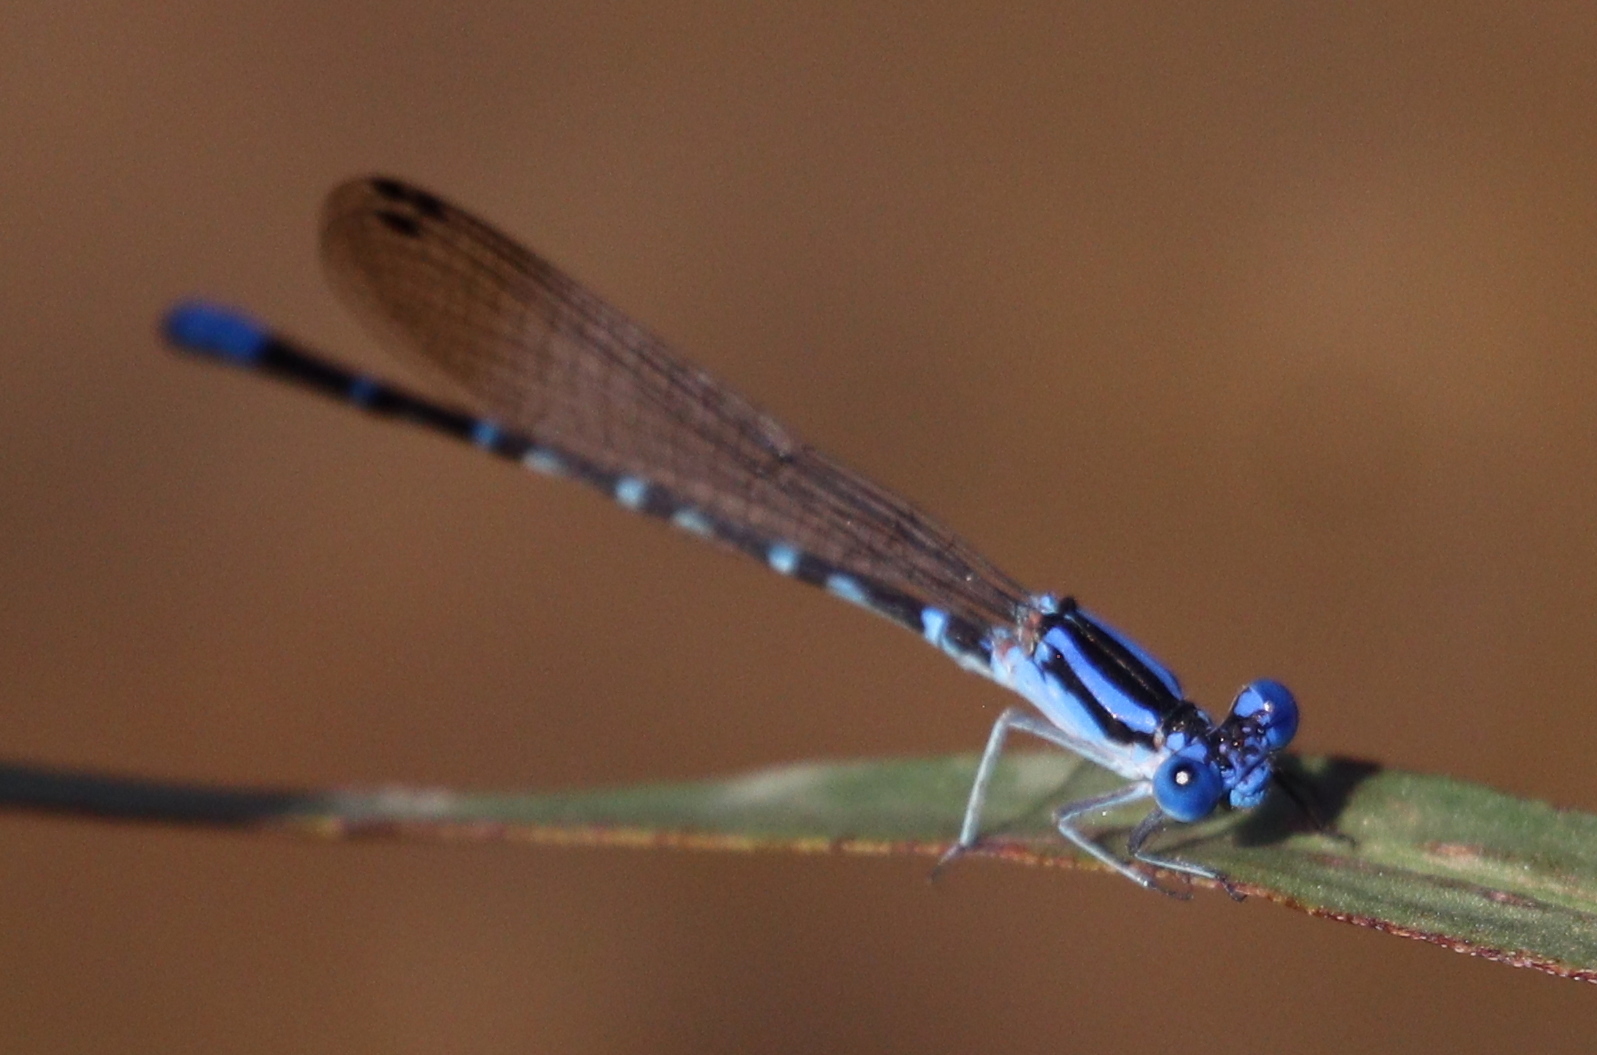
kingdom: Animalia
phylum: Arthropoda
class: Insecta
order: Odonata
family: Coenagrionidae
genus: Argia
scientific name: Argia sedula
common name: Blue-ringed dancer
